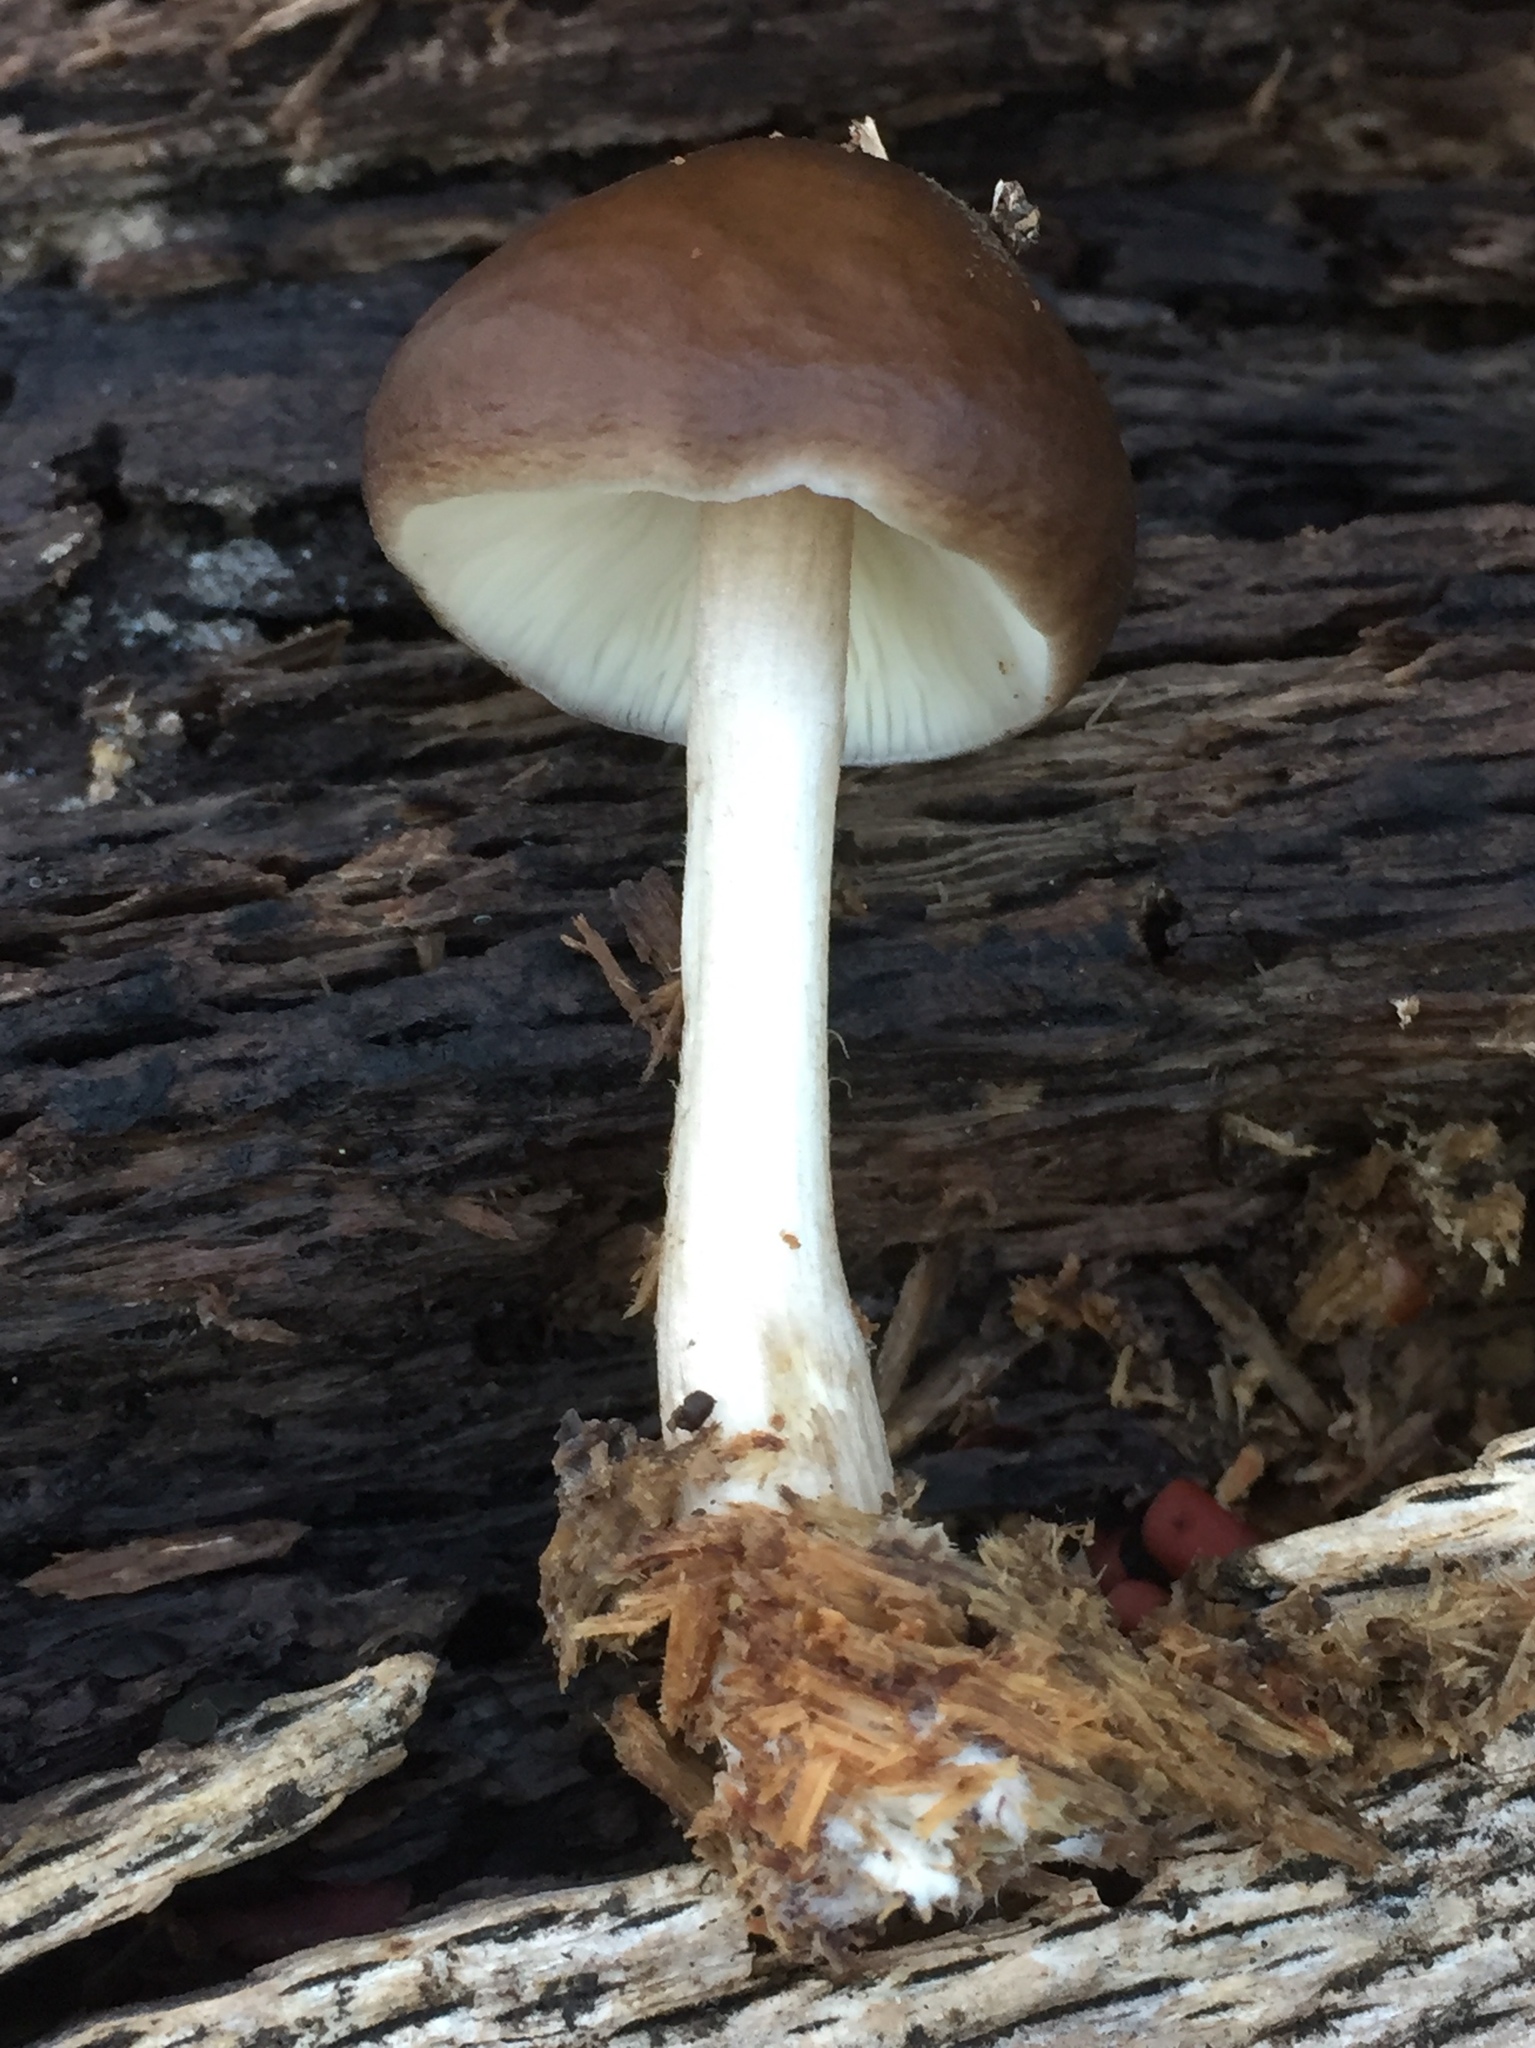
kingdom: Fungi
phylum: Basidiomycota
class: Agaricomycetes
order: Agaricales
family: Pluteaceae
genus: Pluteus
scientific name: Pluteus exilis
